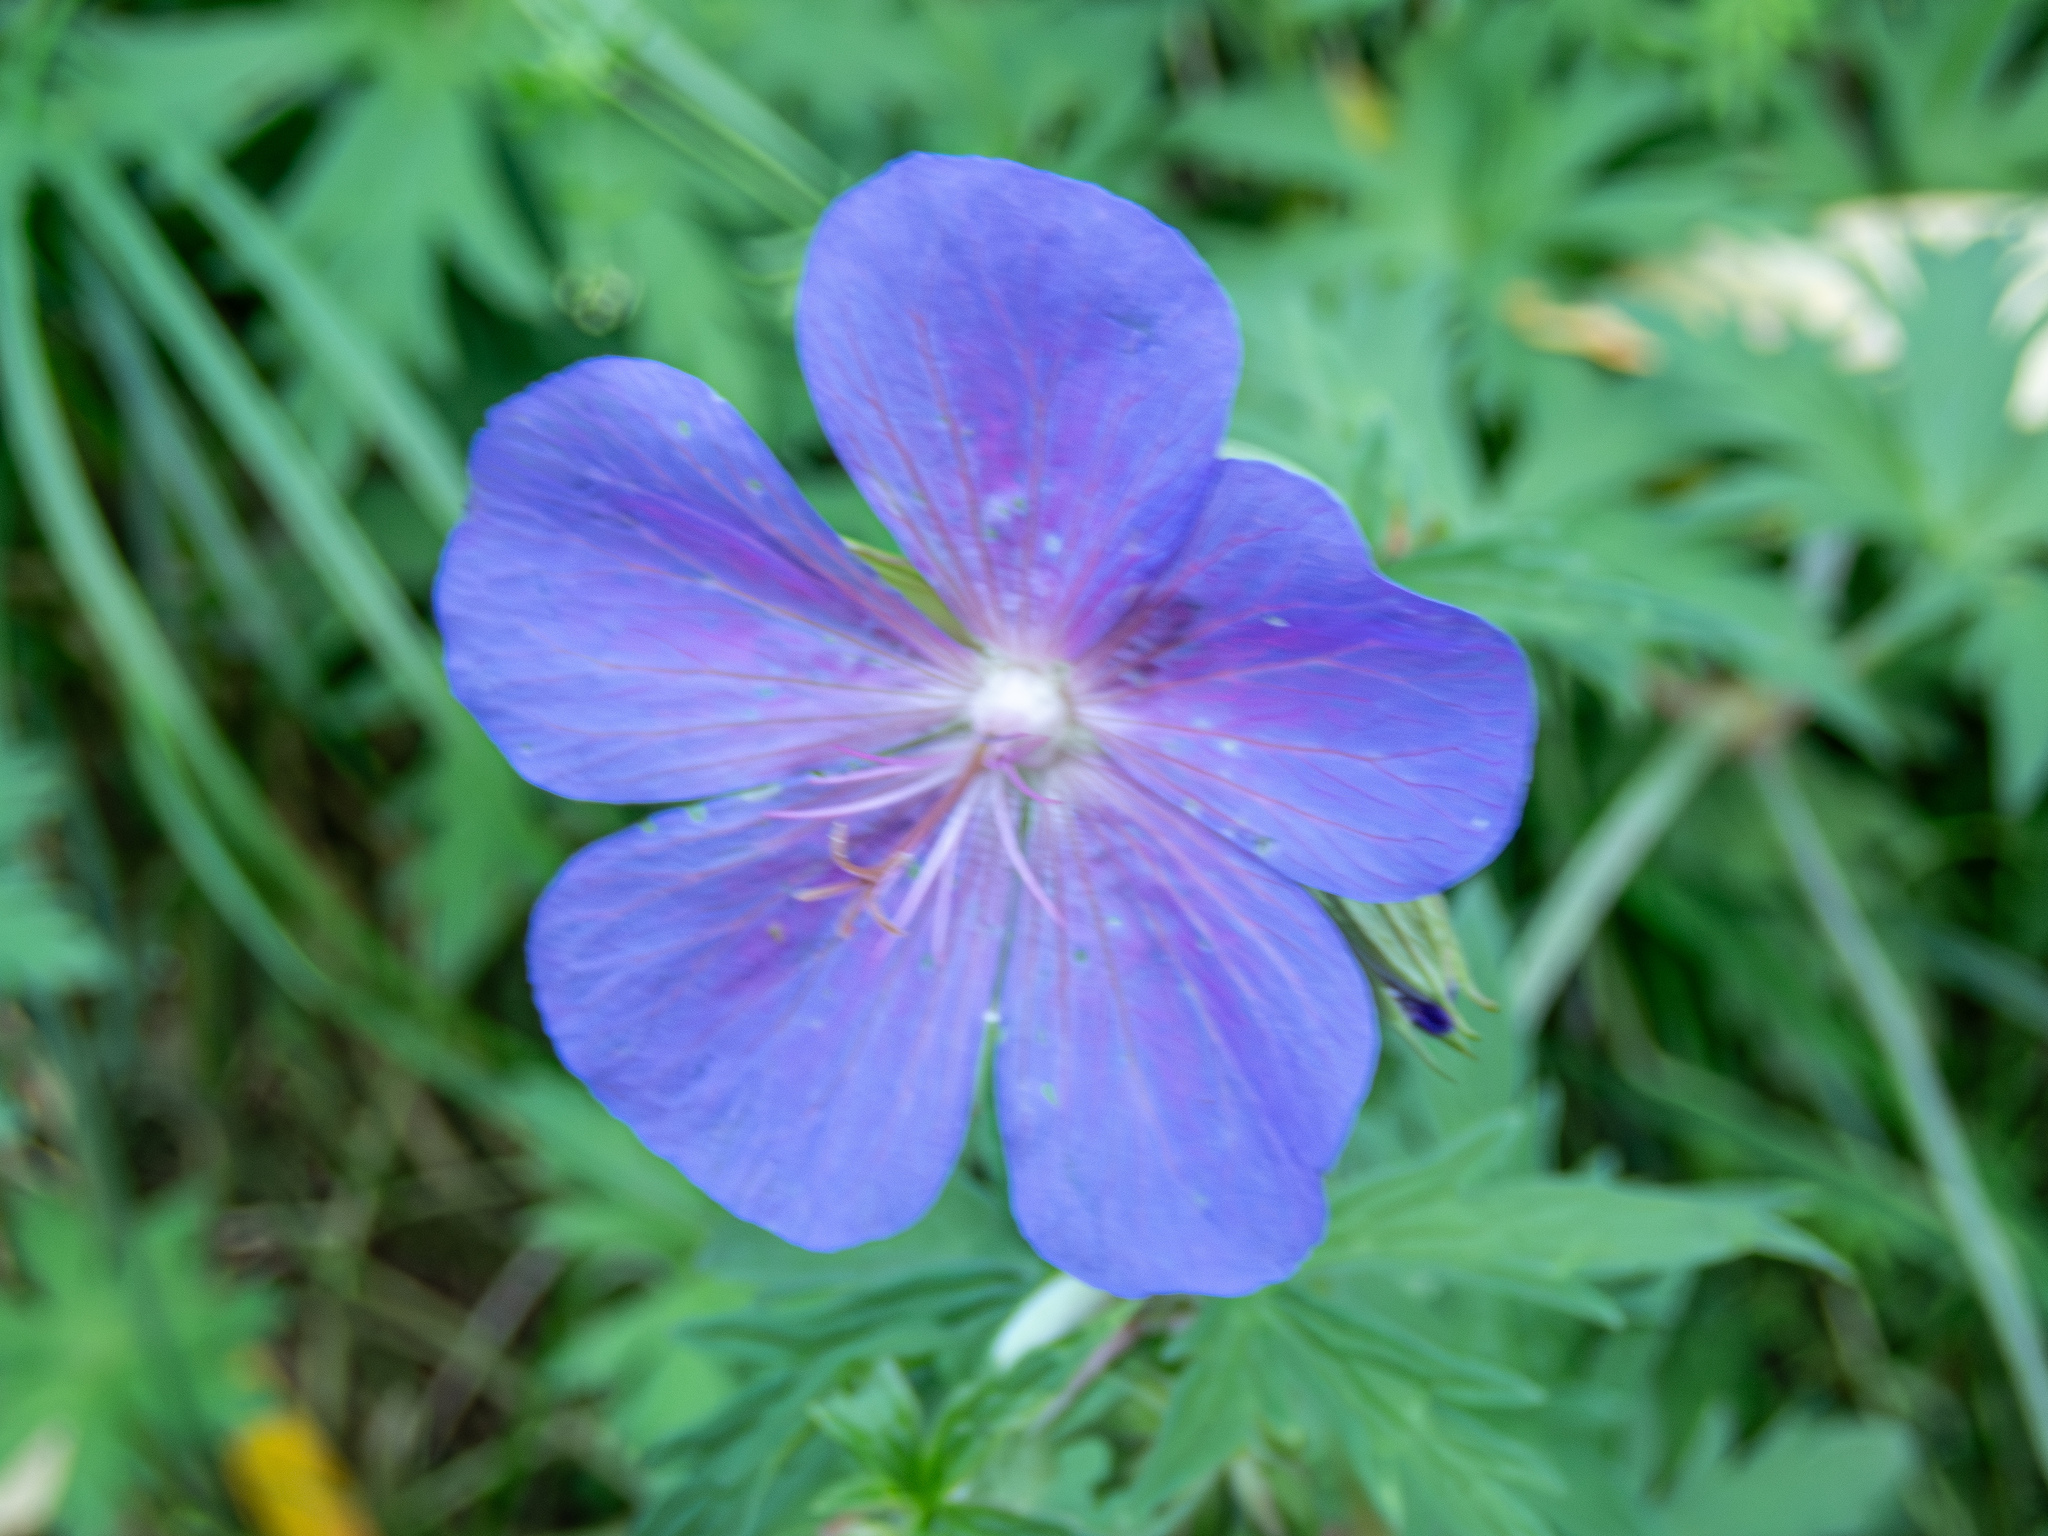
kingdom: Plantae
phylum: Tracheophyta
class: Magnoliopsida
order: Geraniales
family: Geraniaceae
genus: Geranium
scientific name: Geranium pratense
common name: Meadow crane's-bill
